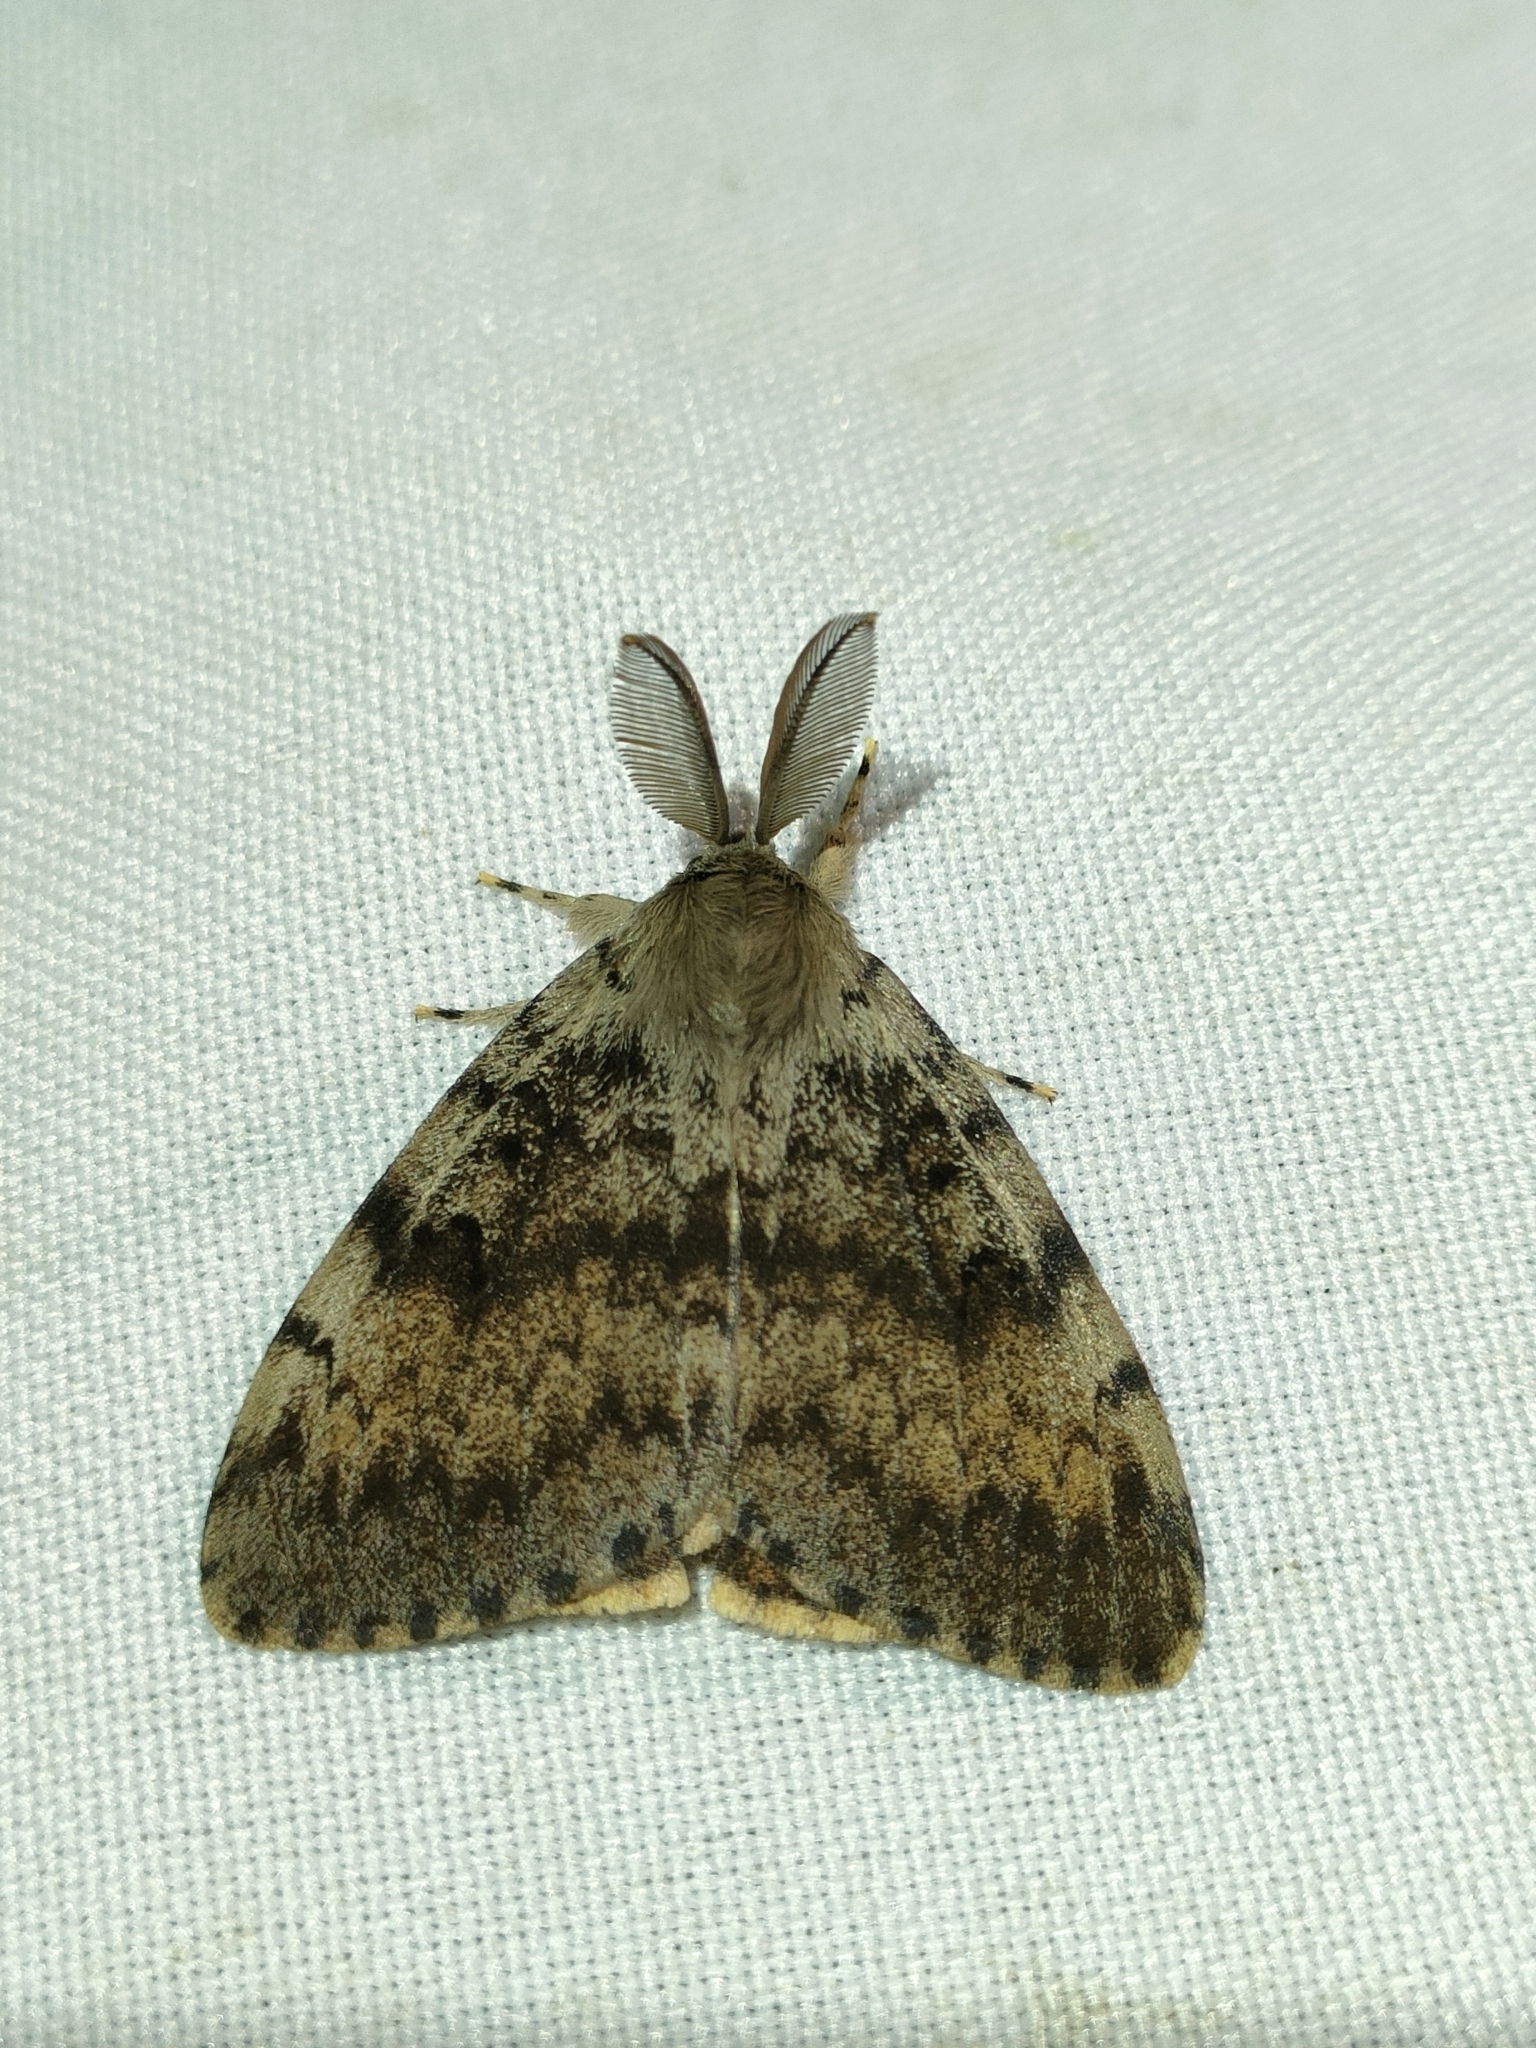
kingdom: Animalia
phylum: Arthropoda
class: Insecta
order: Lepidoptera
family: Erebidae
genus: Lymantria
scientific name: Lymantria dispar
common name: Gypsy moth
